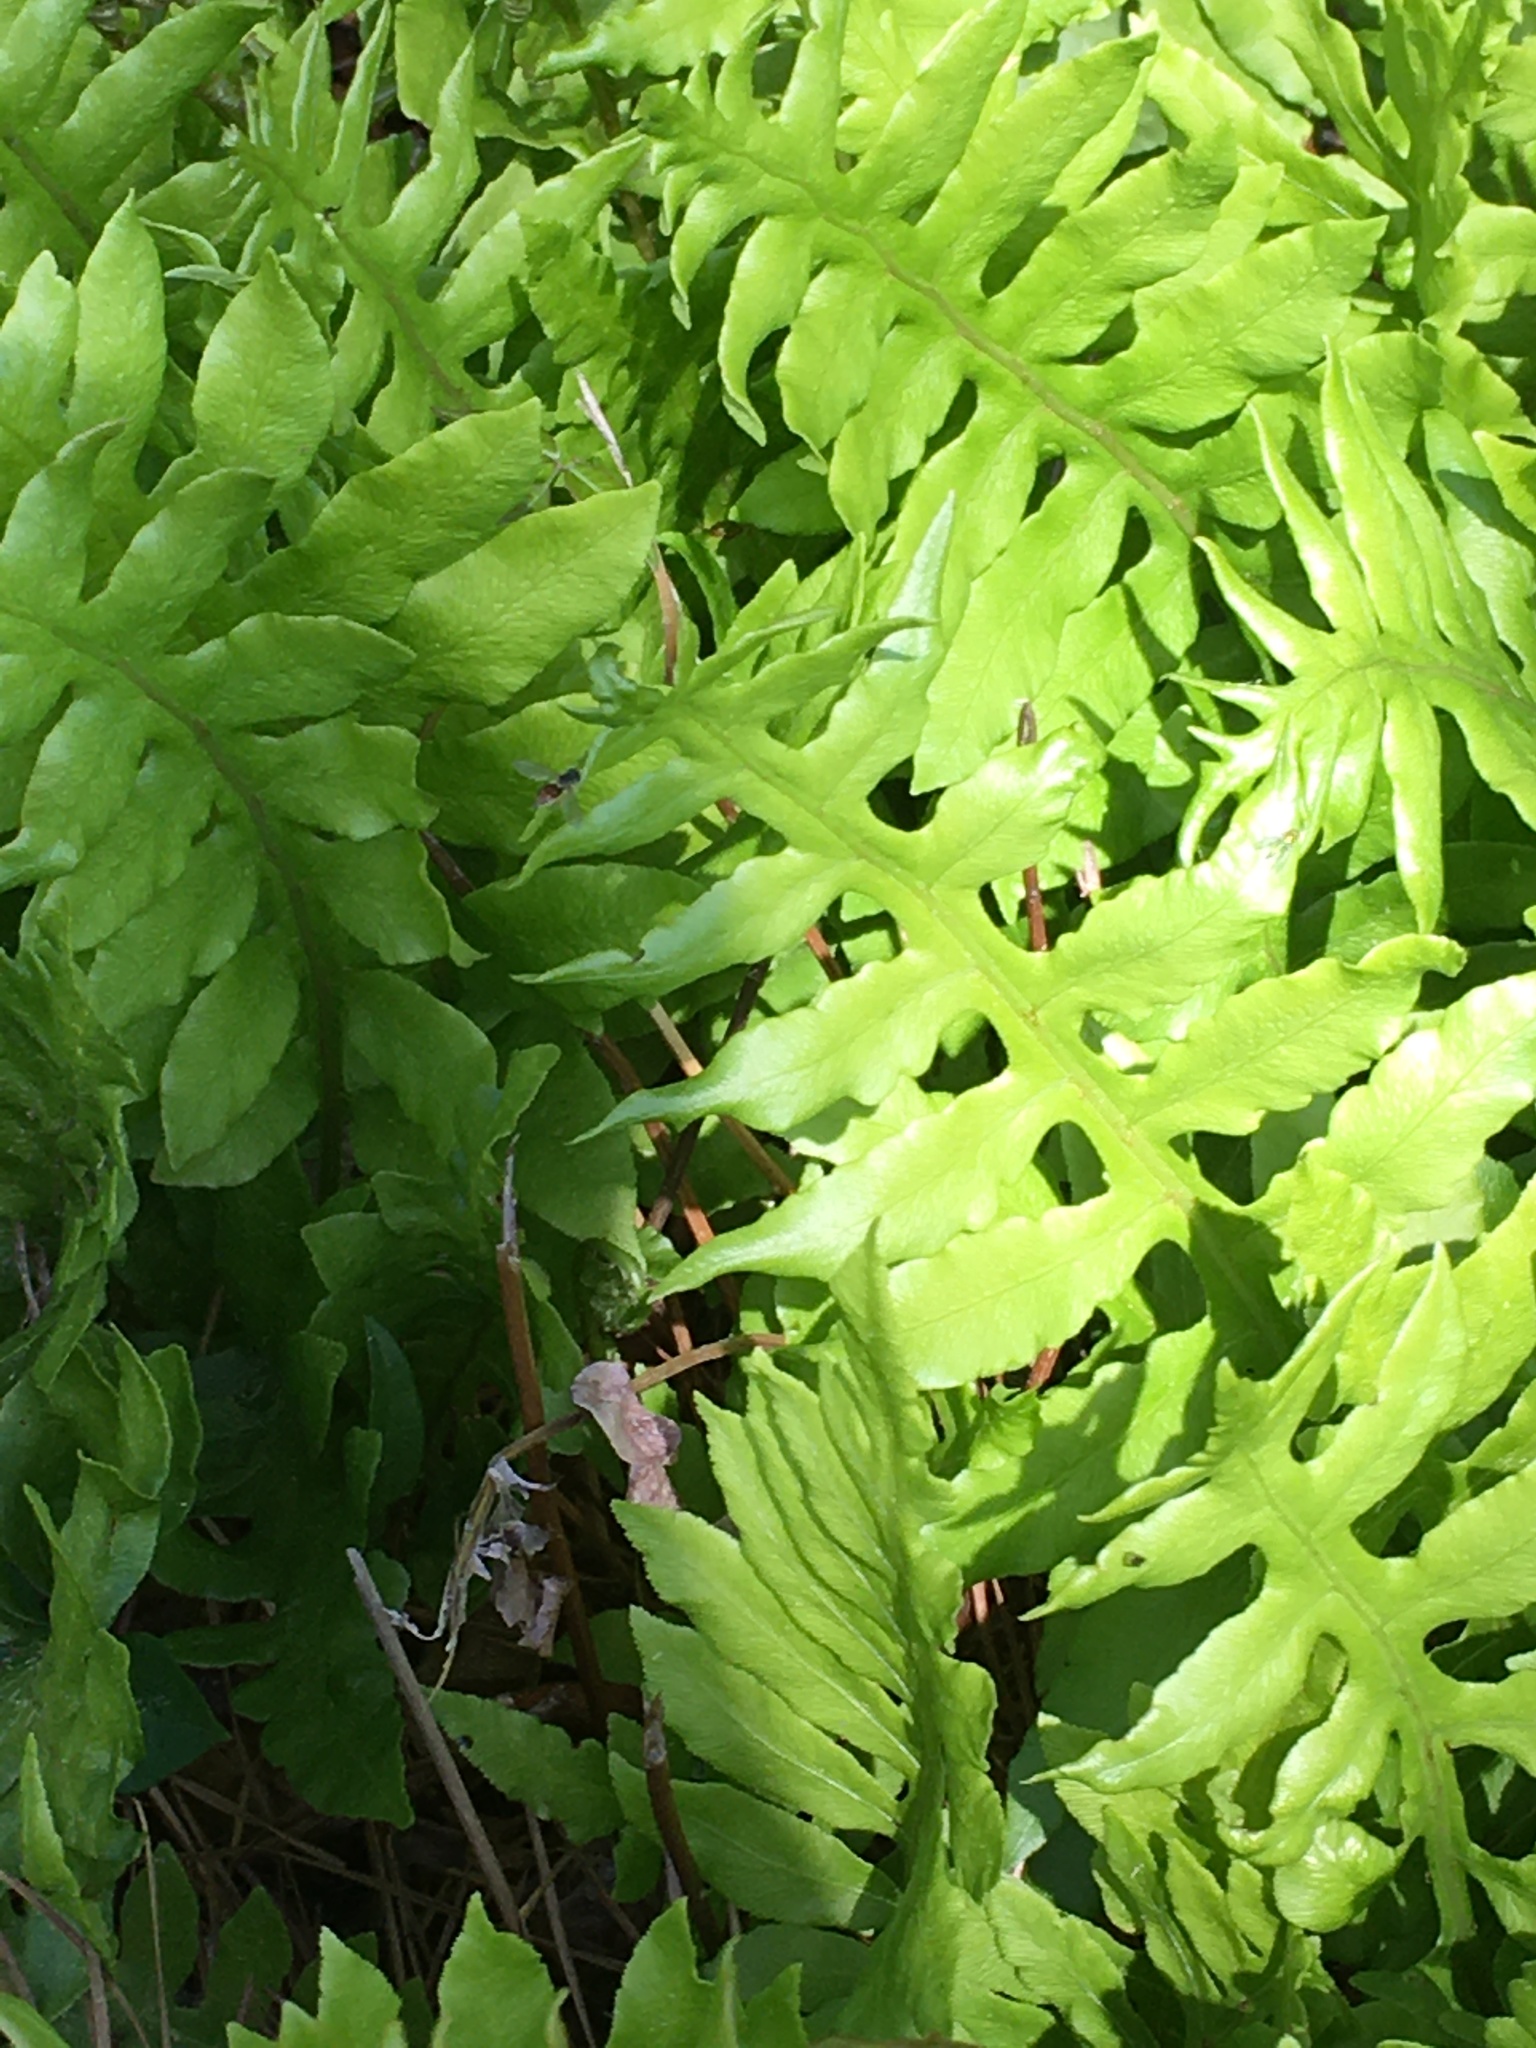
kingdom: Plantae
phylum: Tracheophyta
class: Polypodiopsida
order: Polypodiales
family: Blechnaceae
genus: Lorinseria
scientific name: Lorinseria areolata
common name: Dwarf chain fern
